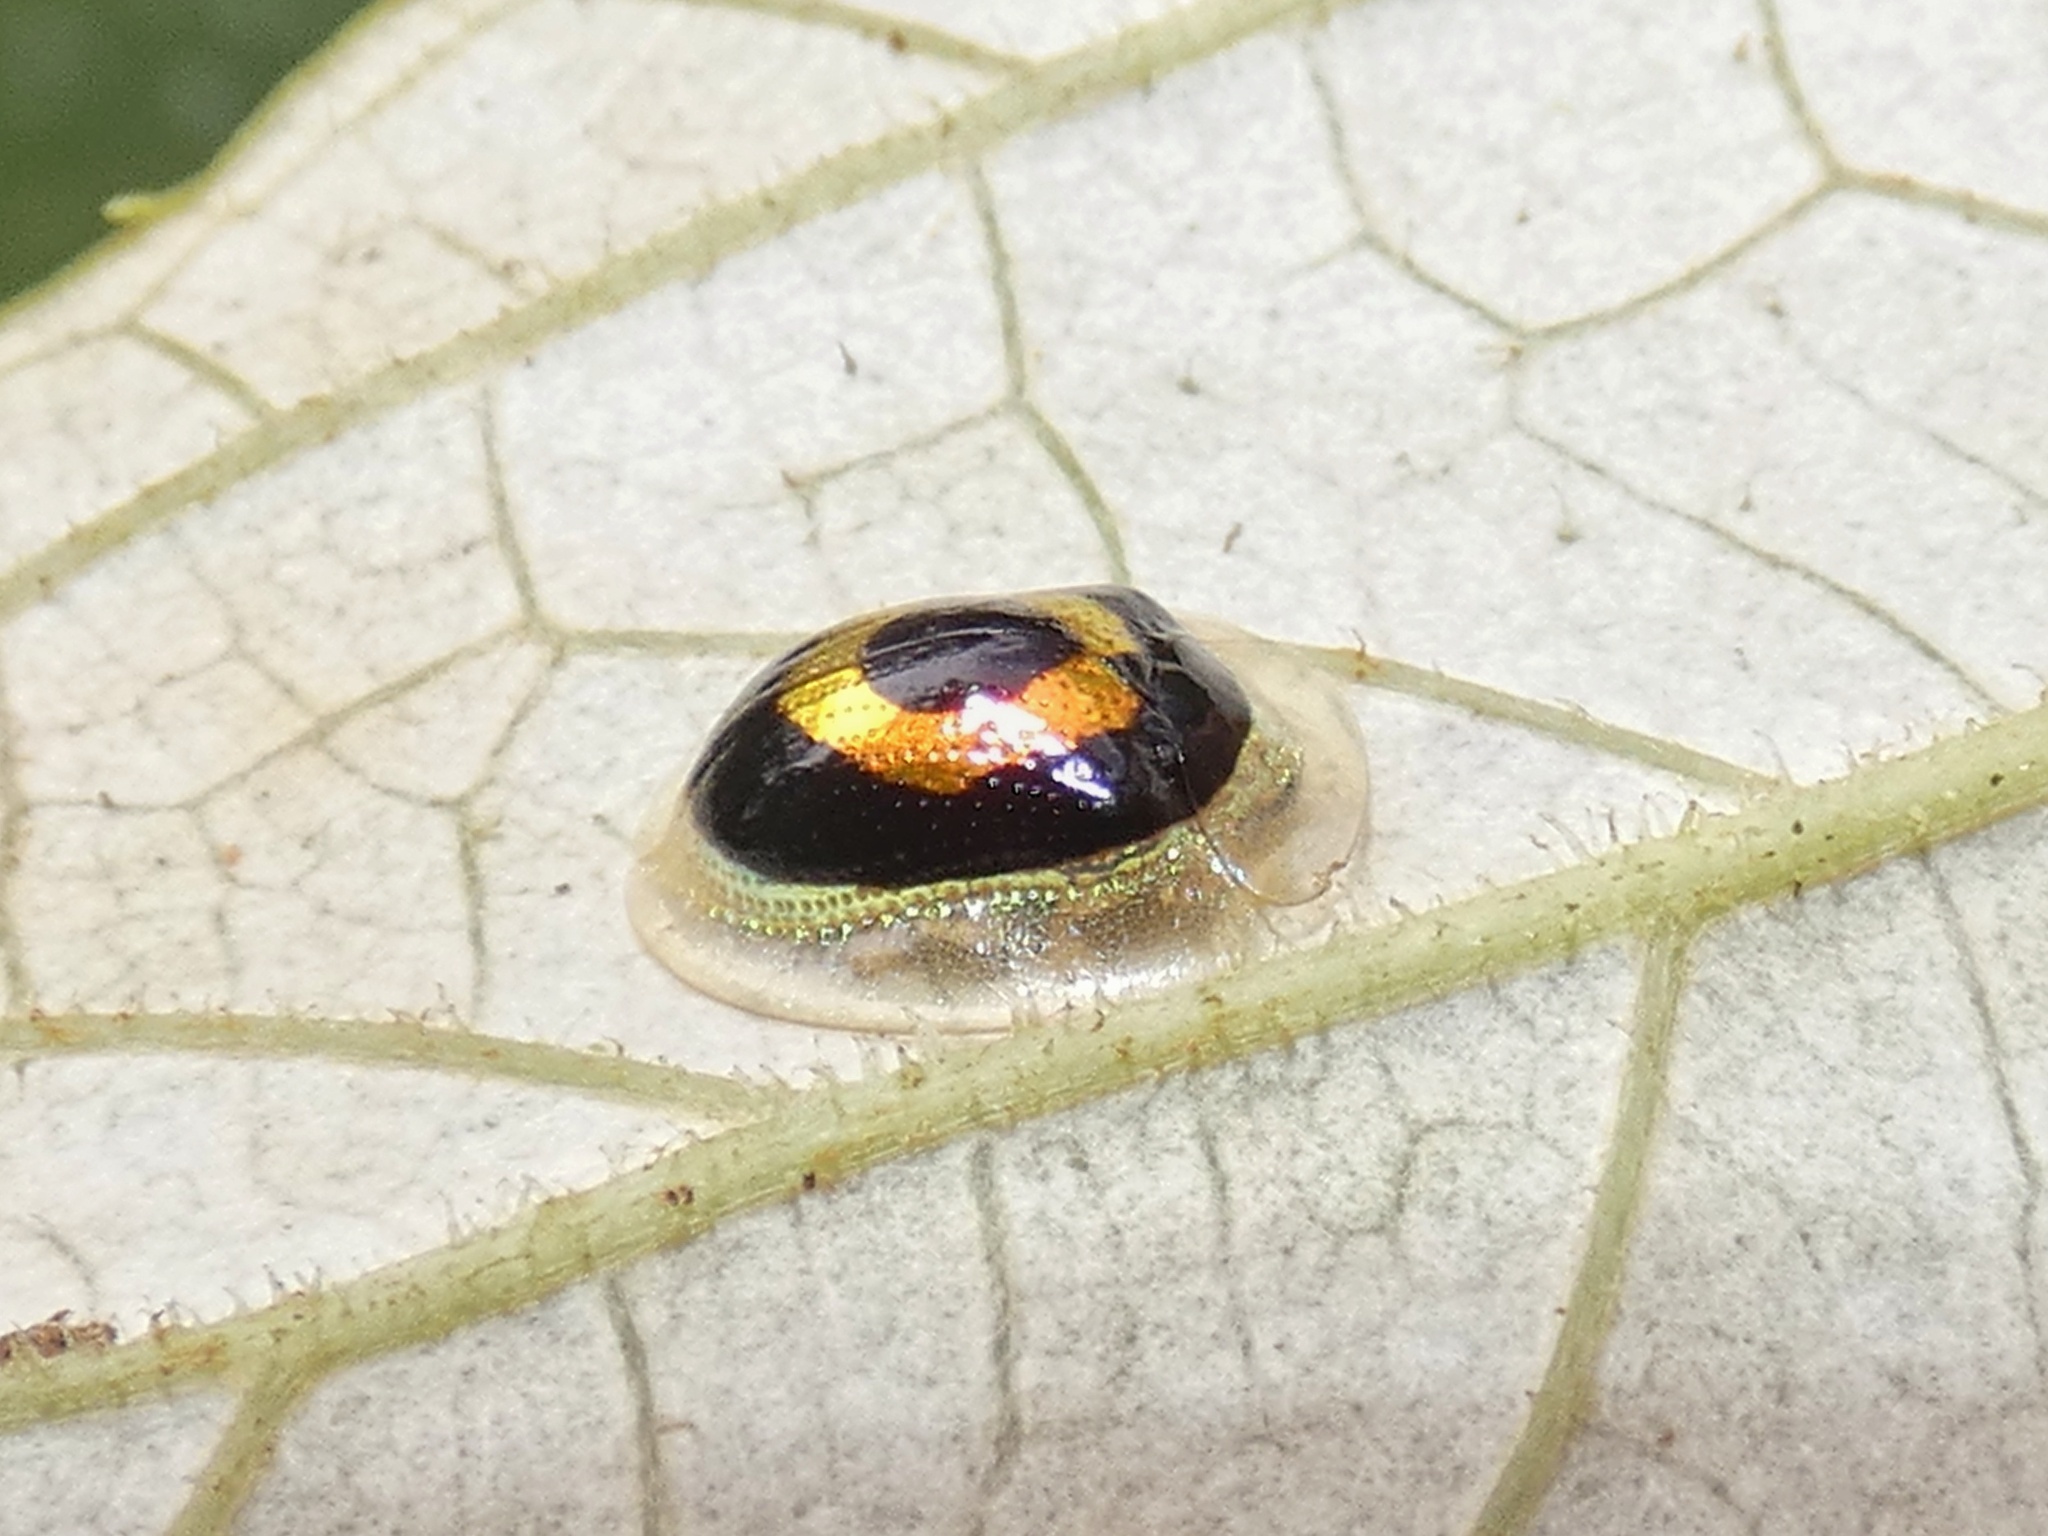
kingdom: Animalia
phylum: Arthropoda
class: Insecta
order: Coleoptera
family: Chrysomelidae
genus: Tapinaspis
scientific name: Tapinaspis wesmaeli
